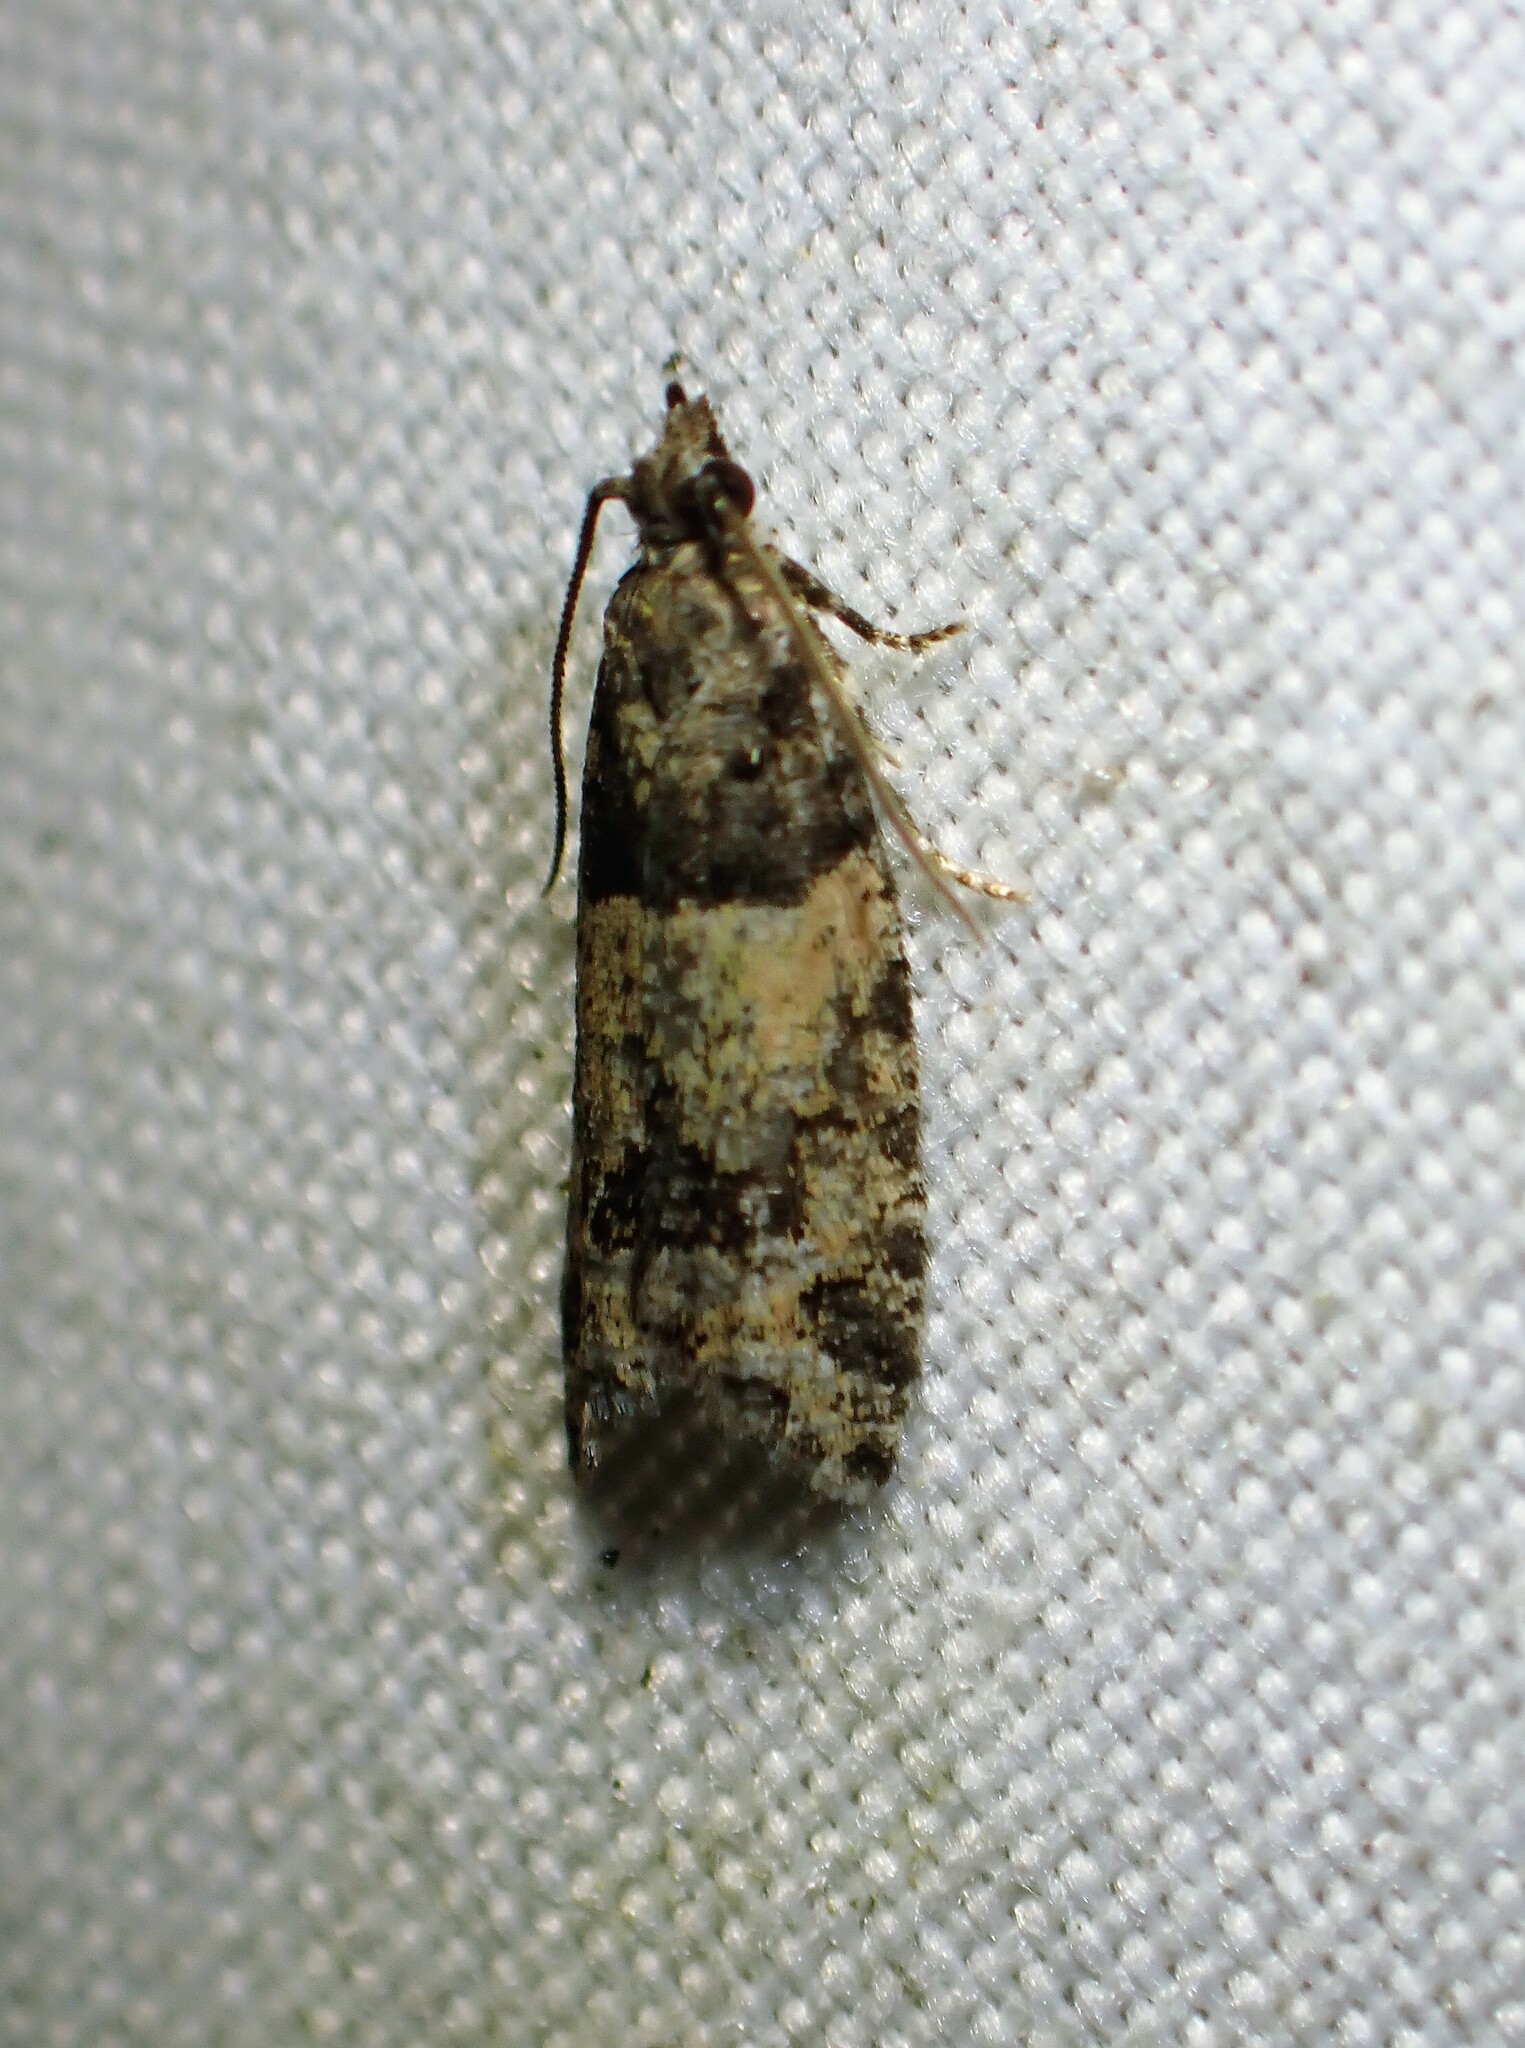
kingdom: Animalia
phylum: Arthropoda
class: Insecta
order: Lepidoptera
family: Tortricidae
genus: Epinotia
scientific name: Epinotia radicana
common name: Red-striped needleworm moth
